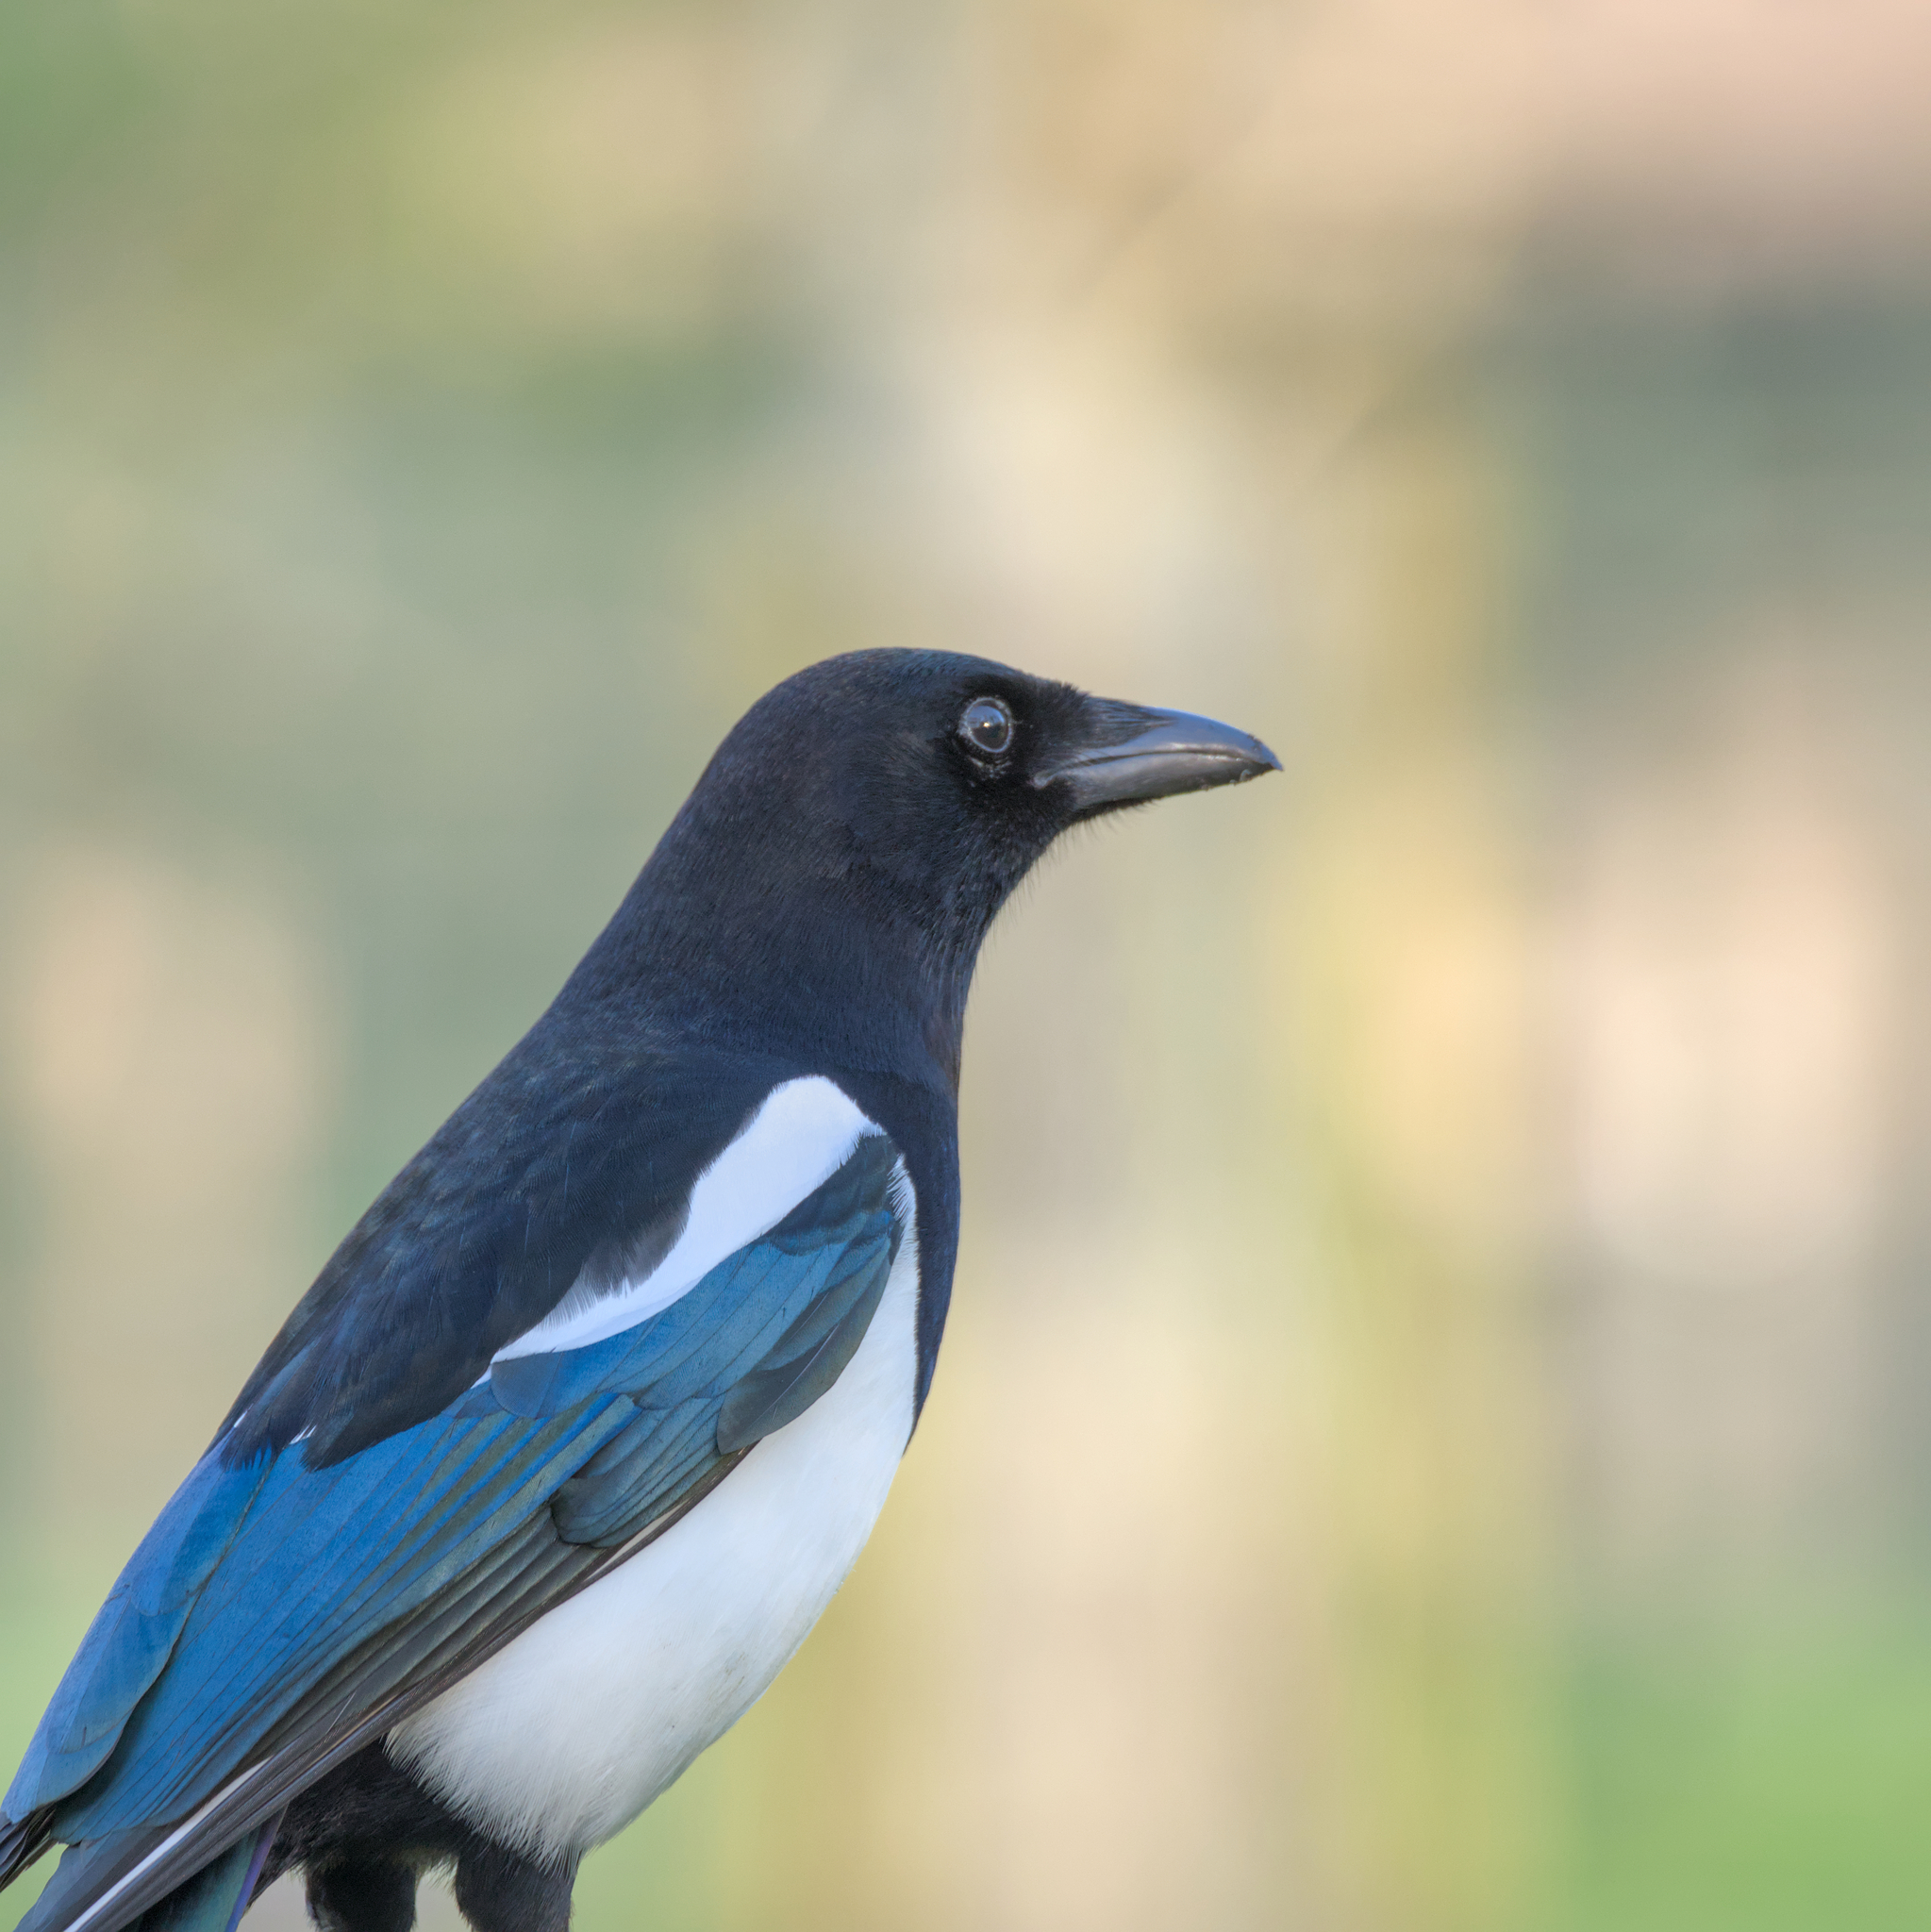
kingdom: Animalia
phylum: Chordata
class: Aves
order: Passeriformes
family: Corvidae
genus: Pica
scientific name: Pica pica
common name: Eurasian magpie
